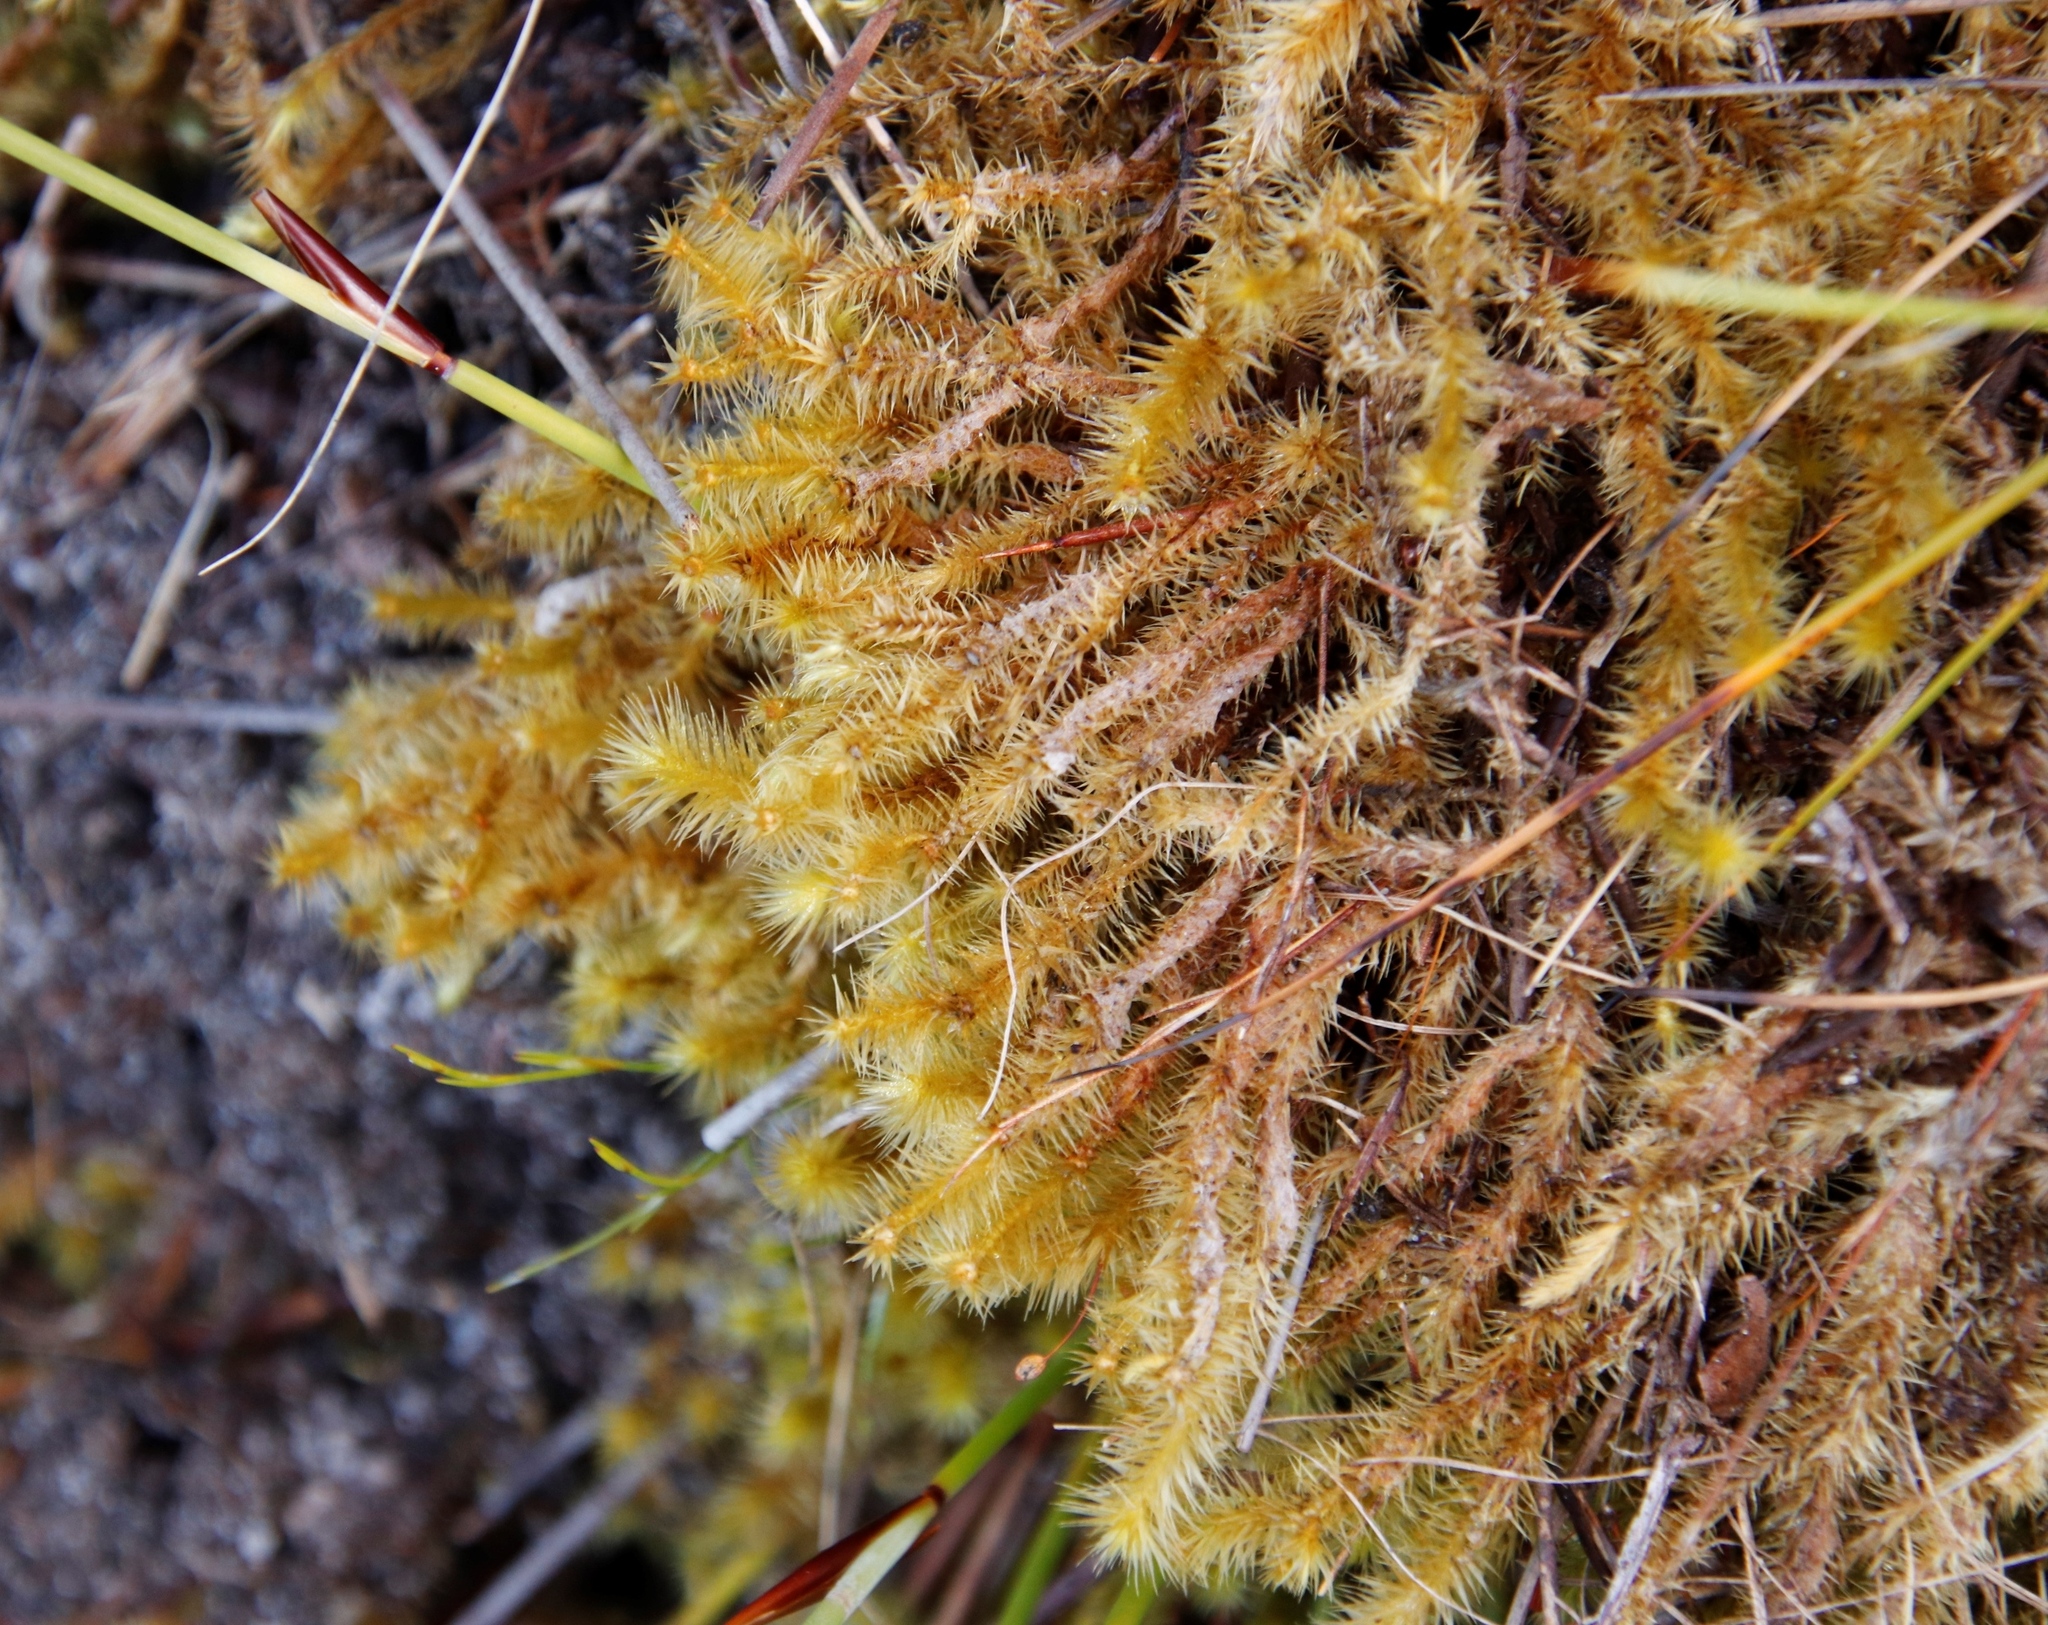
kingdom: Plantae
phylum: Bryophyta
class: Bryopsida
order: Bartramiales
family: Bartramiaceae
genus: Breutelia
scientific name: Breutelia tabularis
